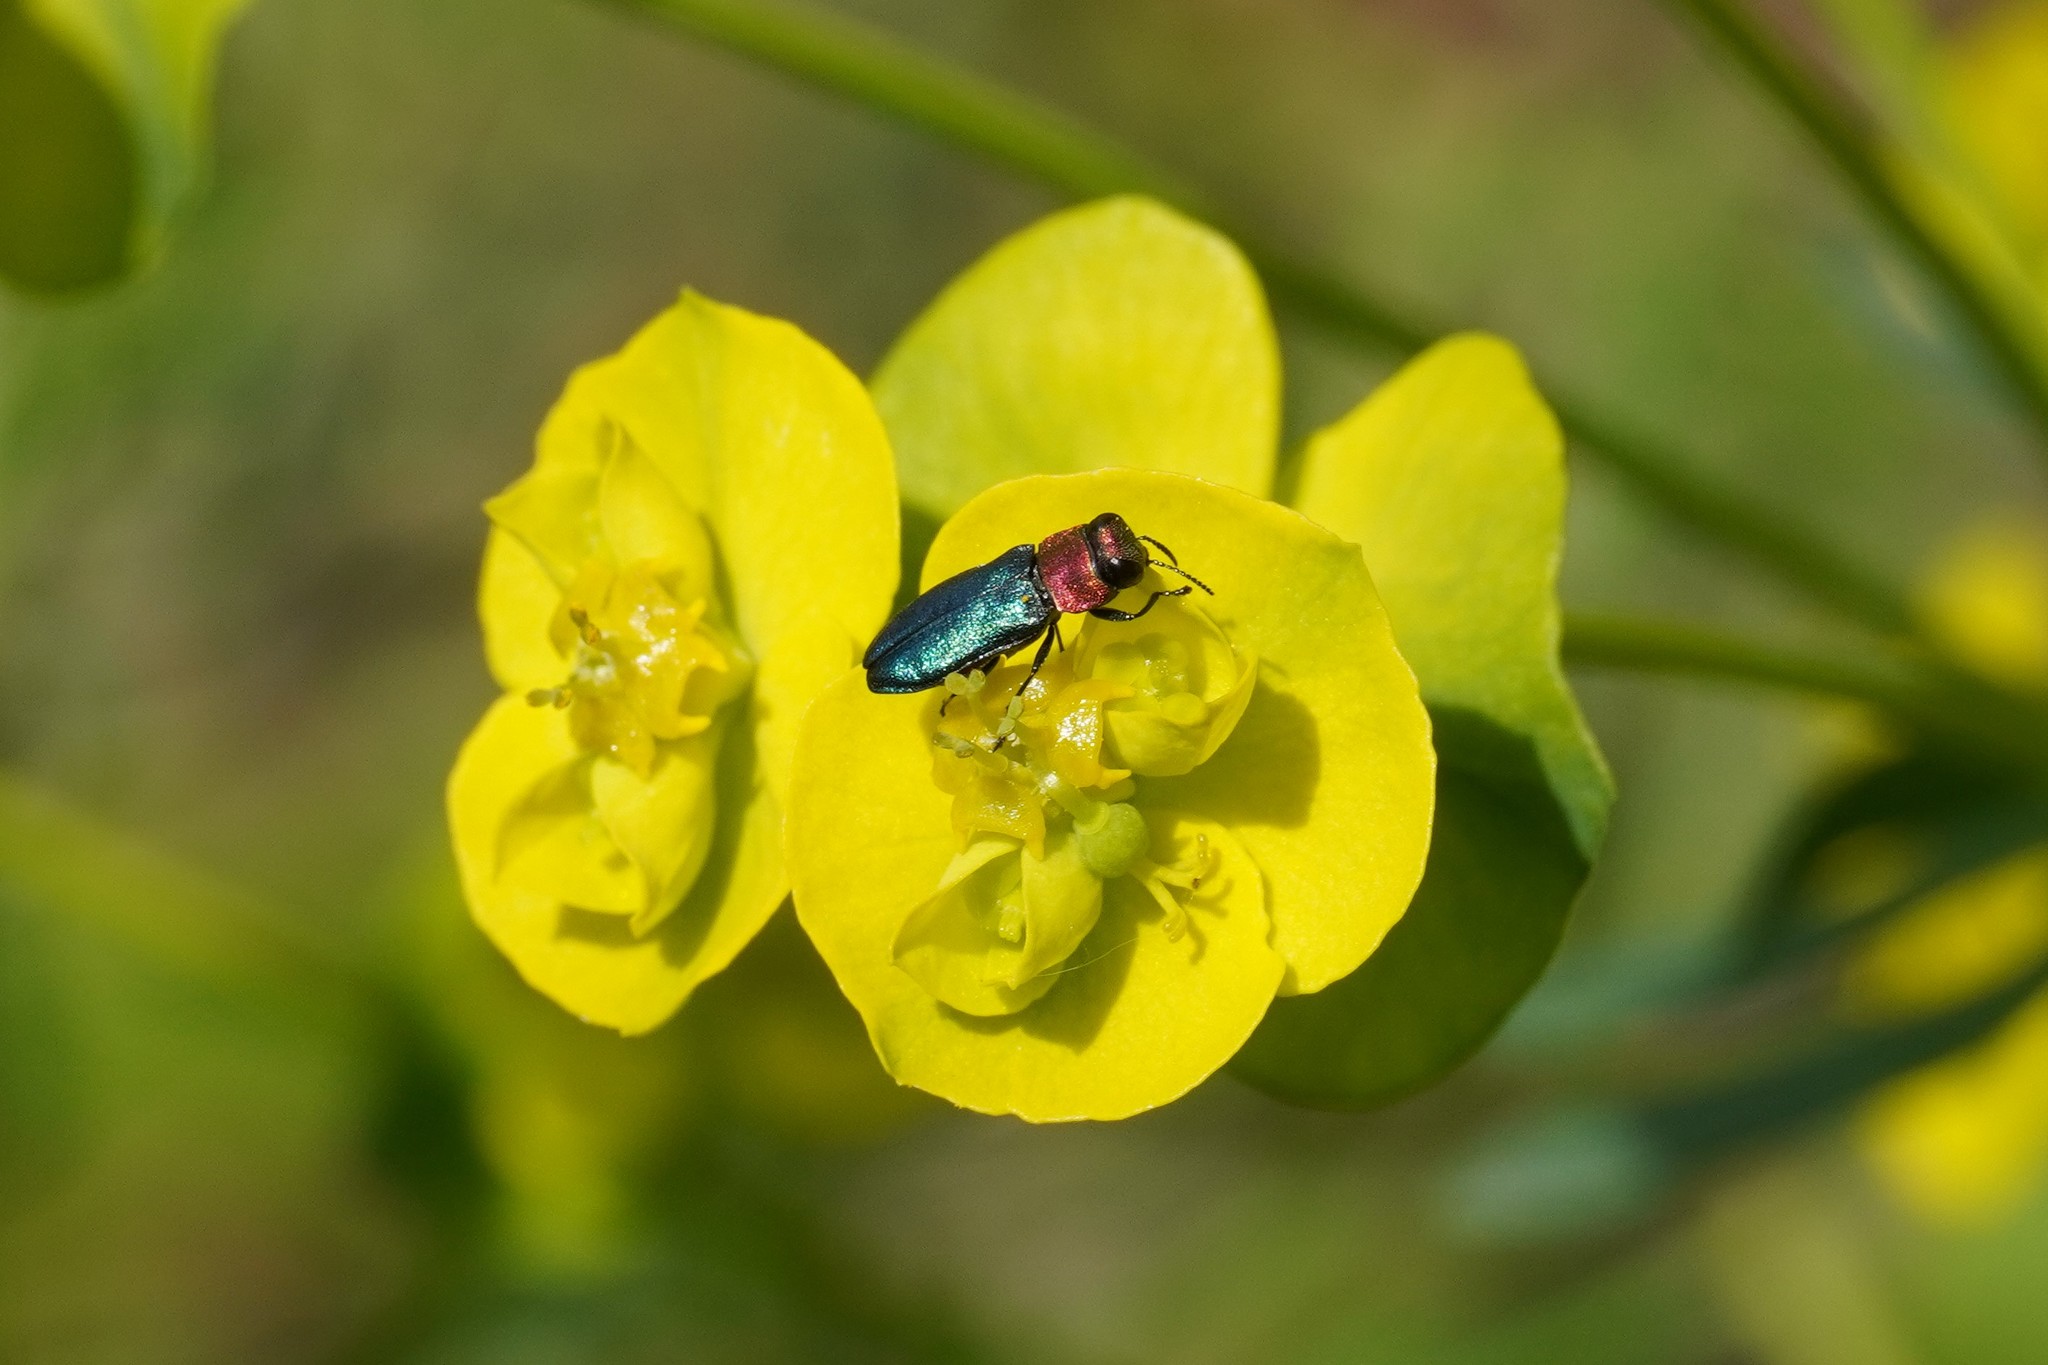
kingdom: Animalia
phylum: Arthropoda
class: Insecta
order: Coleoptera
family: Buprestidae
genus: Anthaxia
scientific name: Anthaxia nitidula
